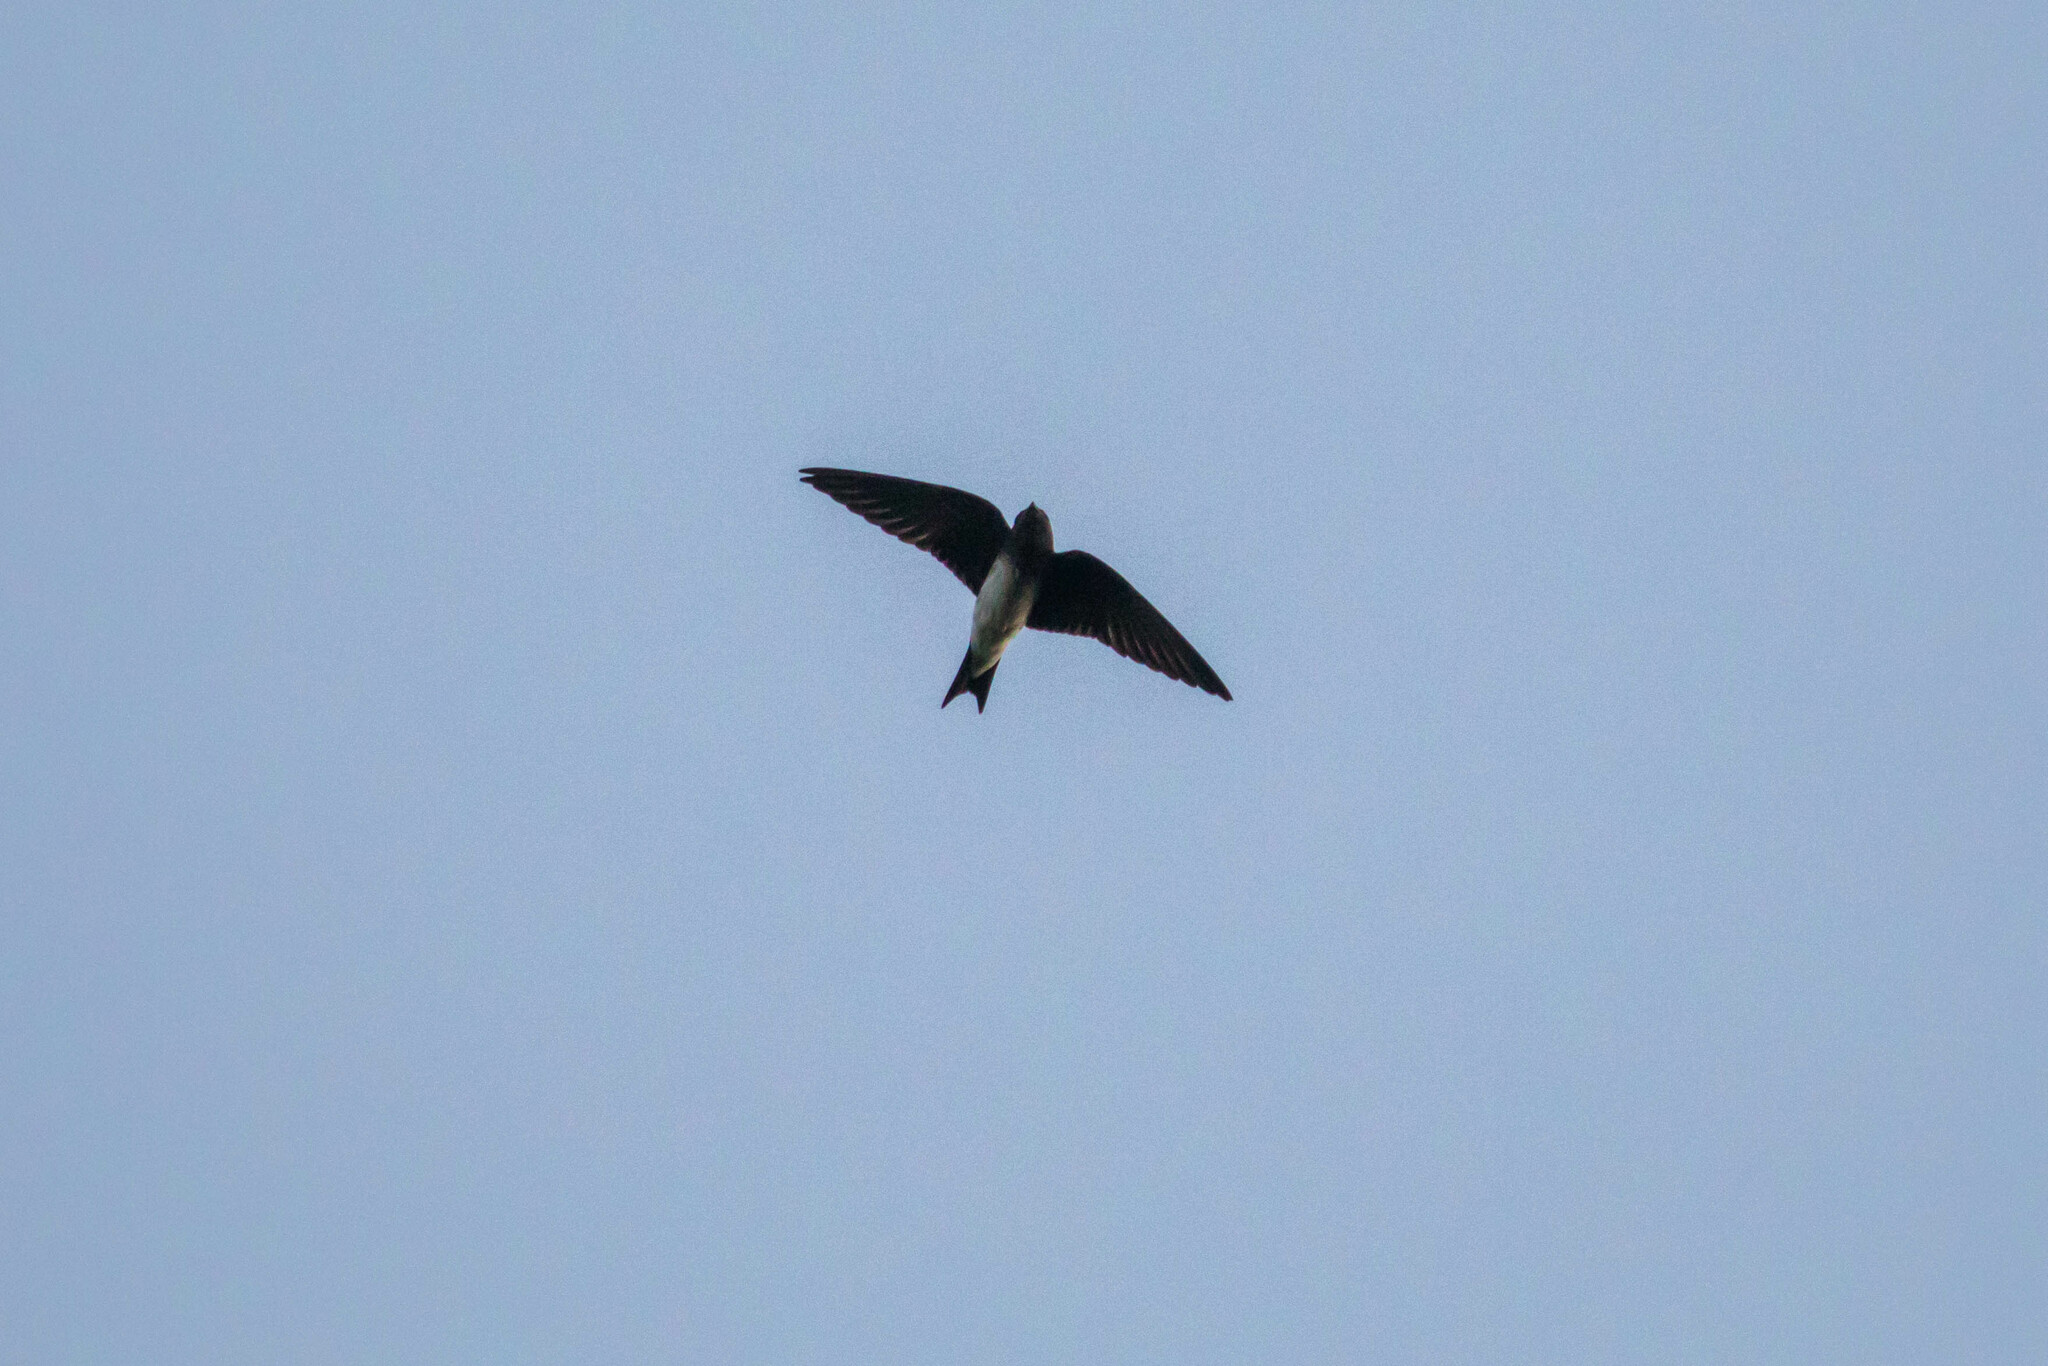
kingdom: Animalia
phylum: Chordata
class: Aves
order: Passeriformes
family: Hirundinidae
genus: Progne
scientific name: Progne chalybea
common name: Grey-breasted martin
